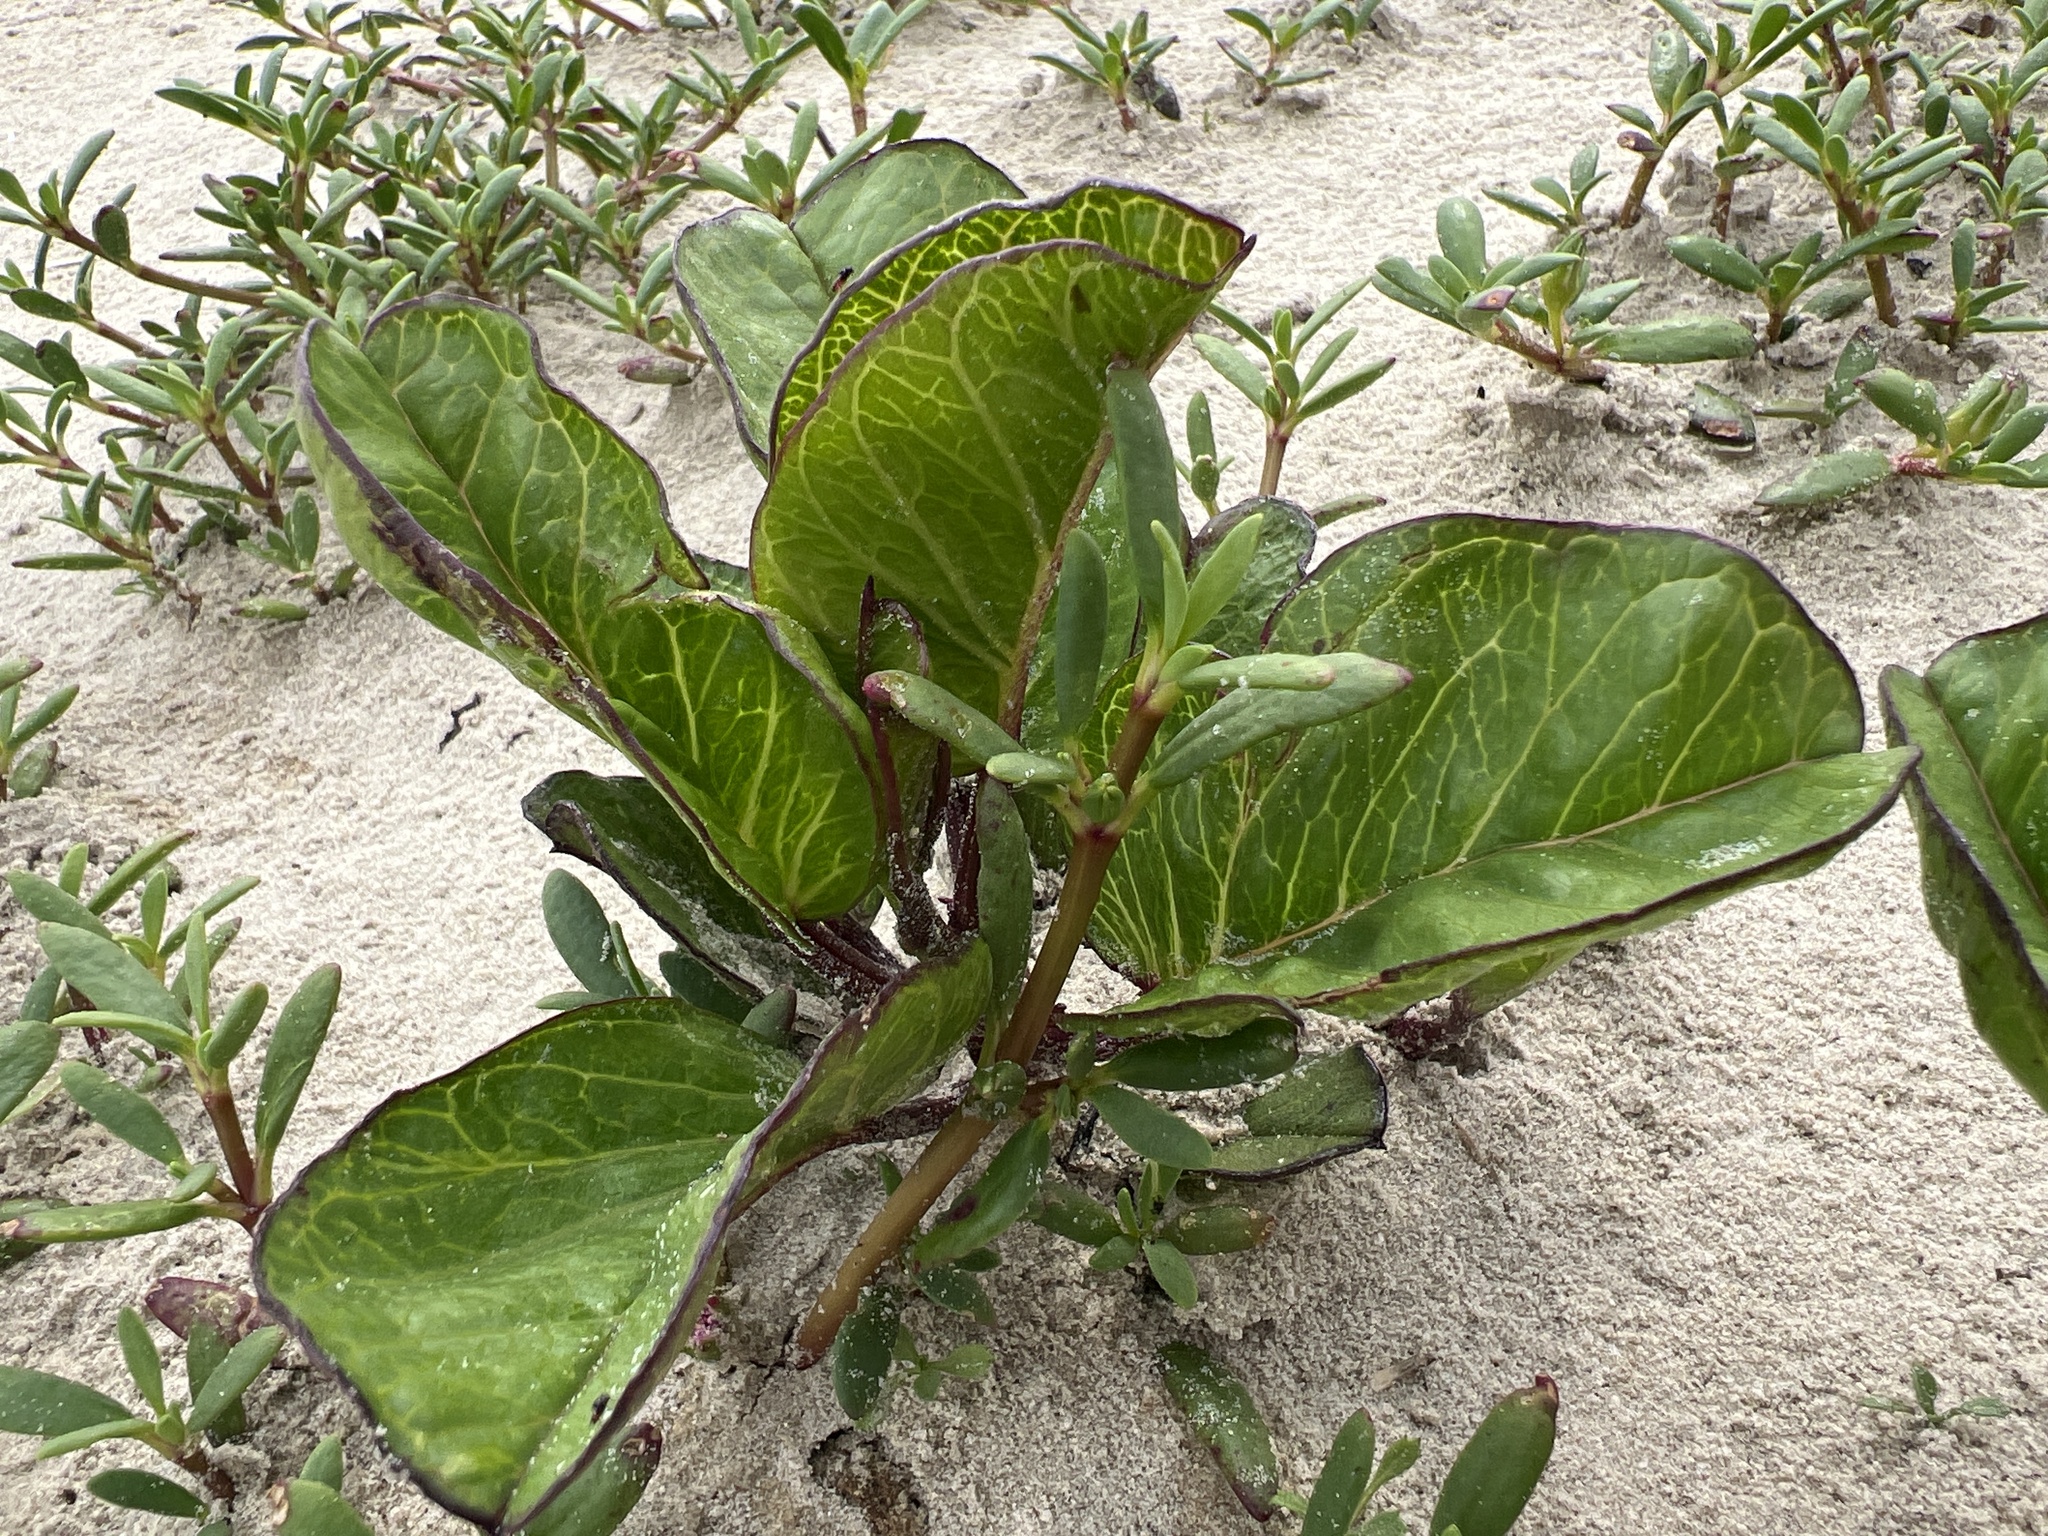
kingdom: Plantae
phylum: Tracheophyta
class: Magnoliopsida
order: Solanales
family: Convolvulaceae
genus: Ipomoea
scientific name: Ipomoea pes-caprae
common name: Beach morning glory
